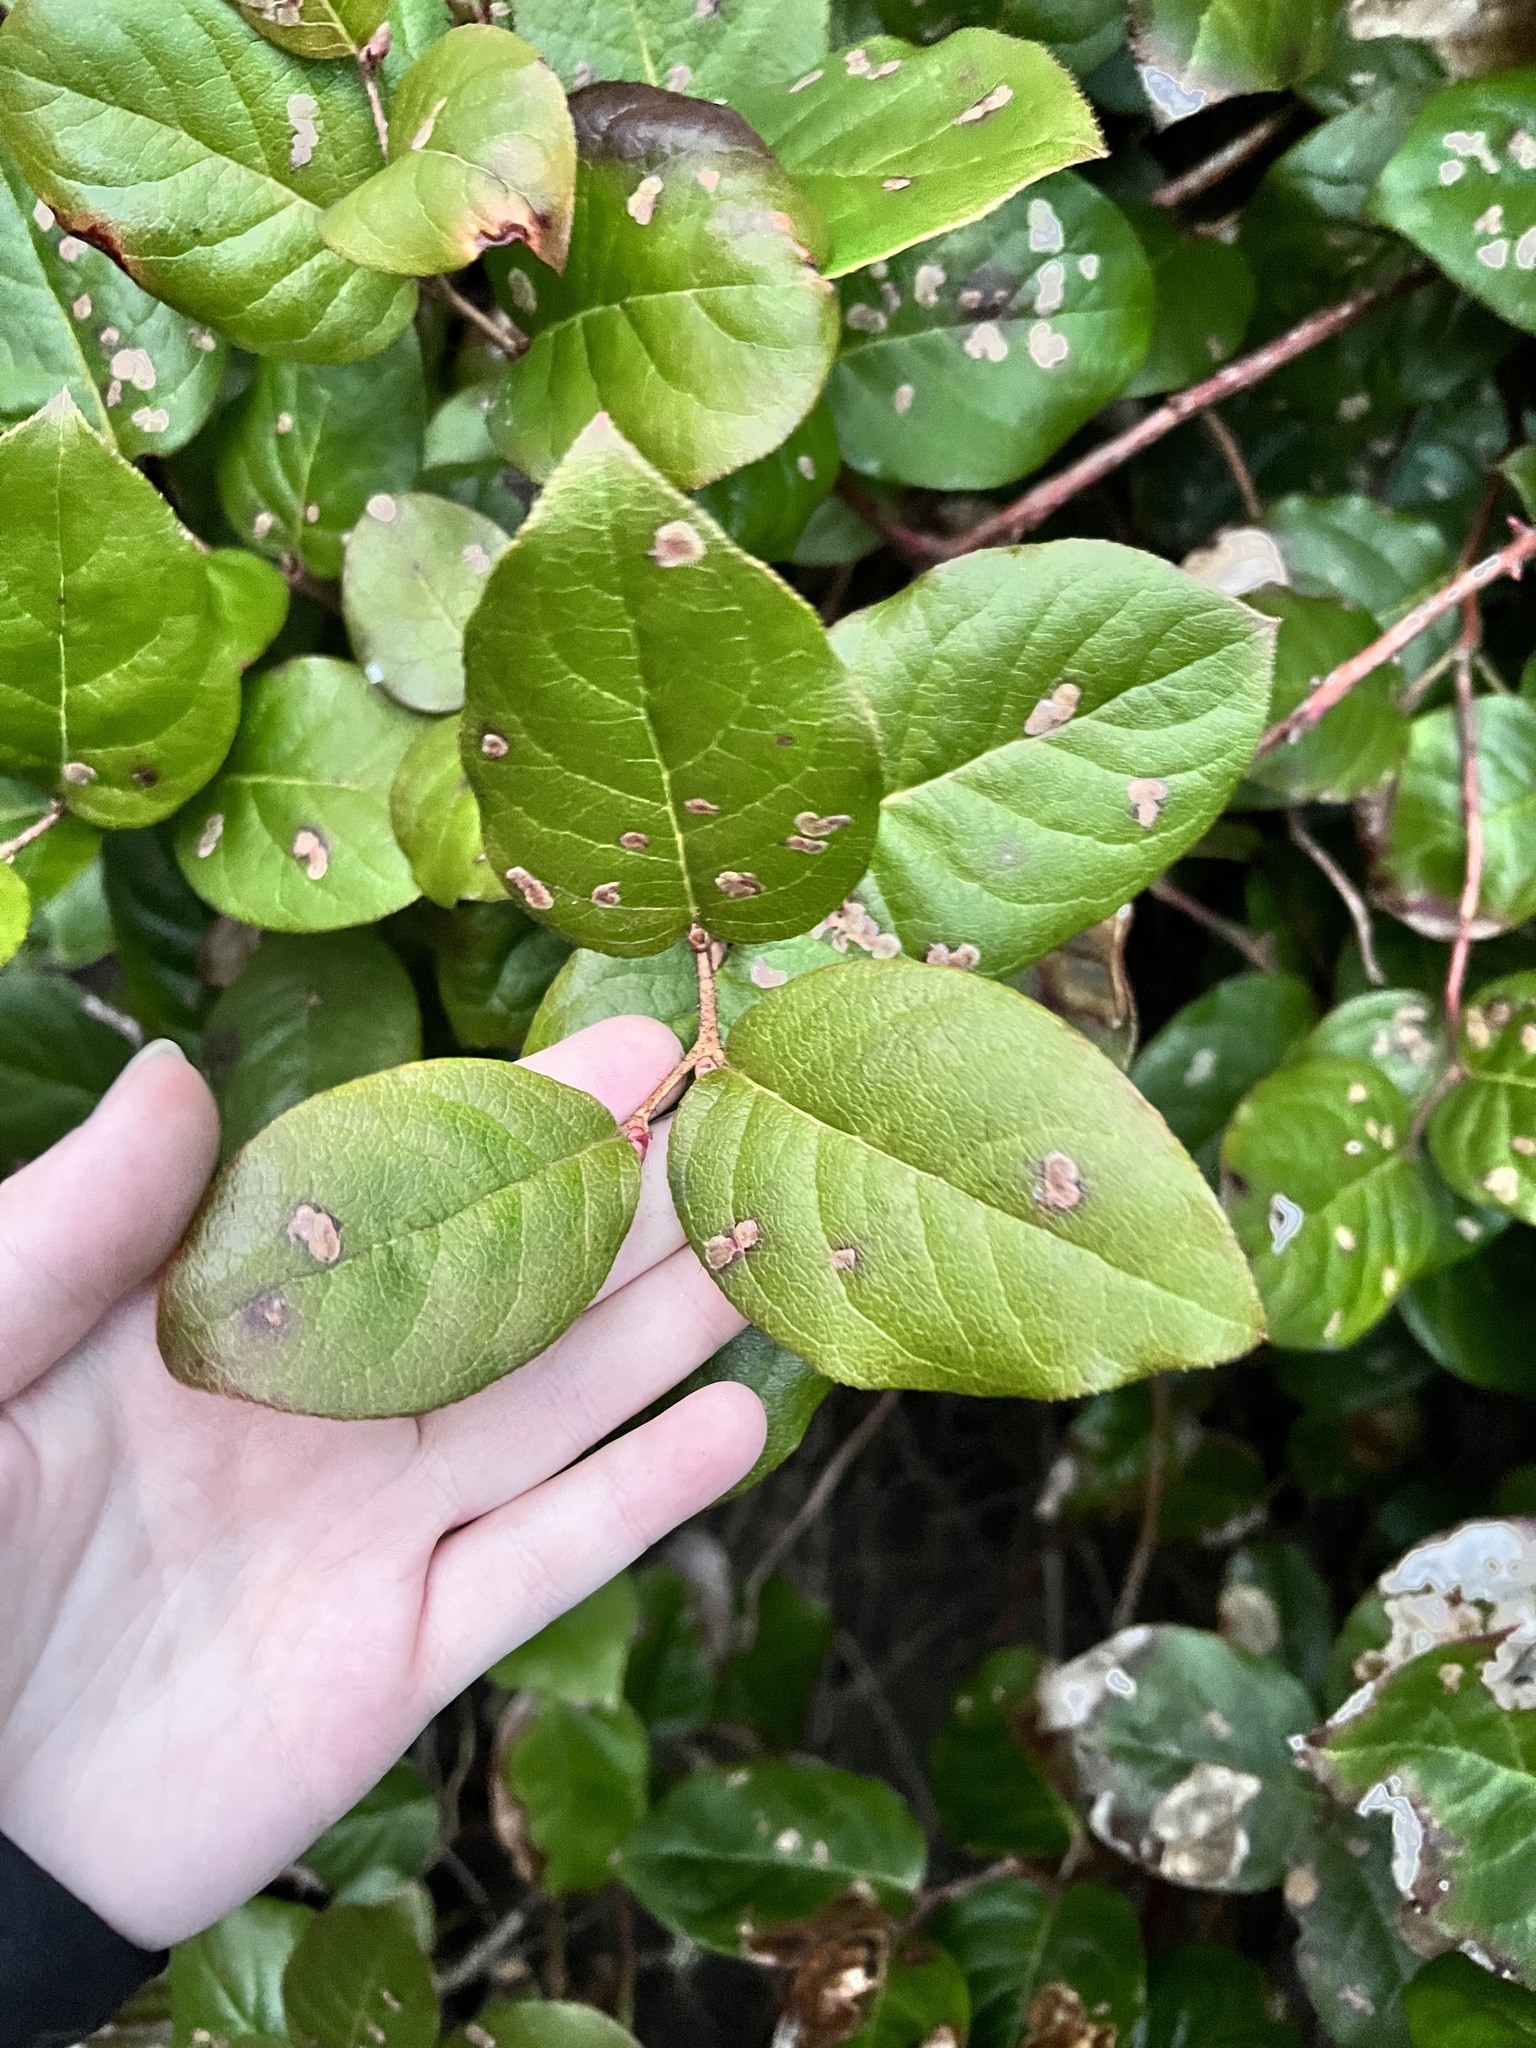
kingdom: Plantae
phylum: Tracheophyta
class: Magnoliopsida
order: Ericales
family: Ericaceae
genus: Gaultheria
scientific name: Gaultheria shallon
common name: Shallon
